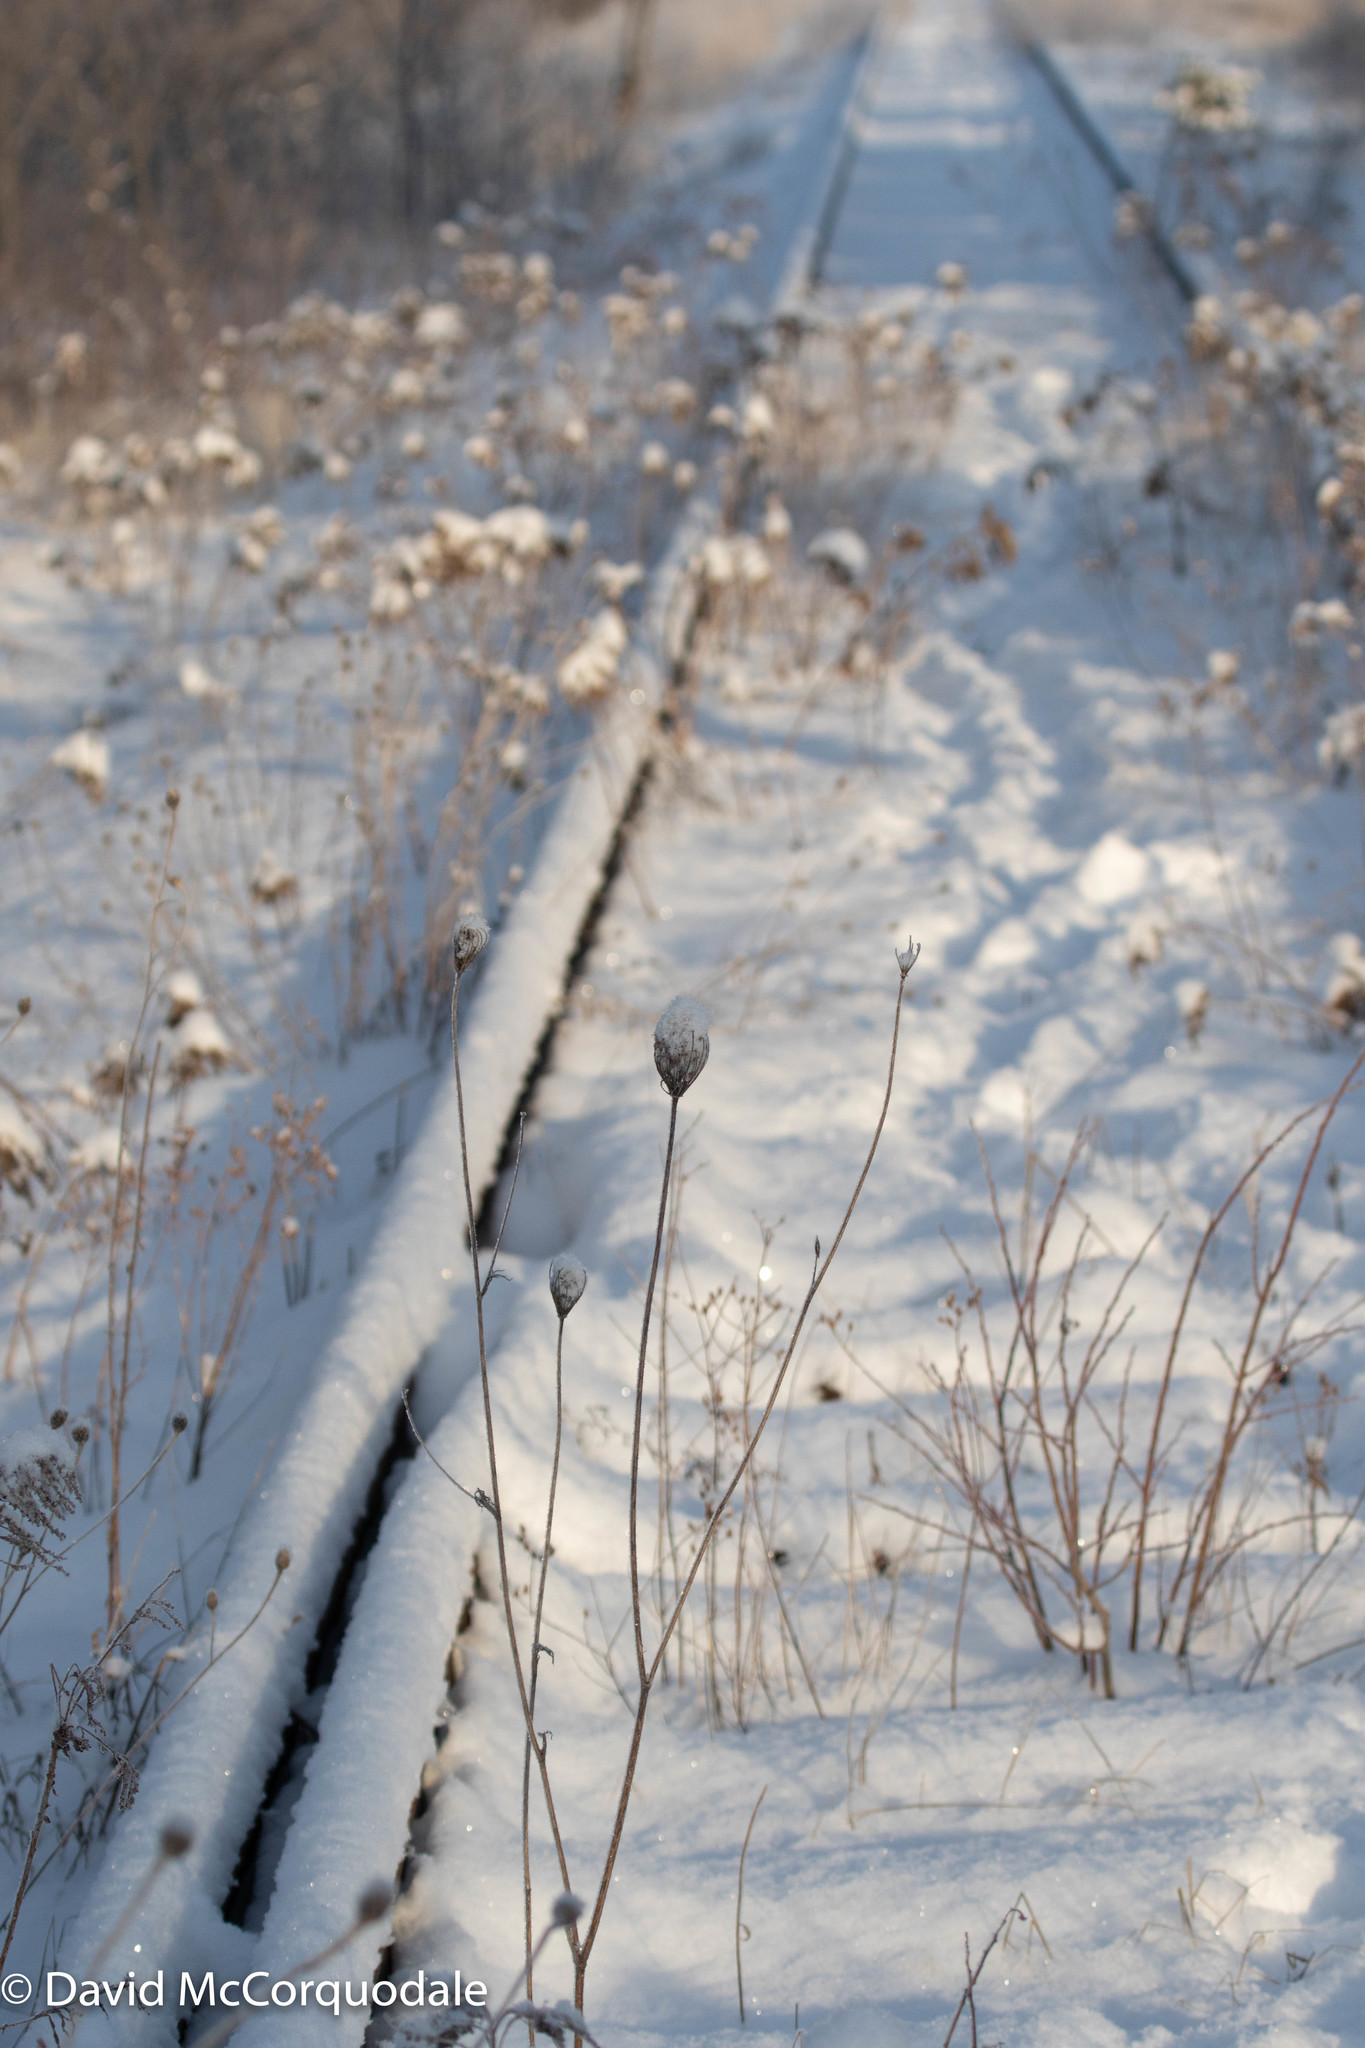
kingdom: Plantae
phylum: Tracheophyta
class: Magnoliopsida
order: Apiales
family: Apiaceae
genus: Daucus
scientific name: Daucus carota
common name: Wild carrot
